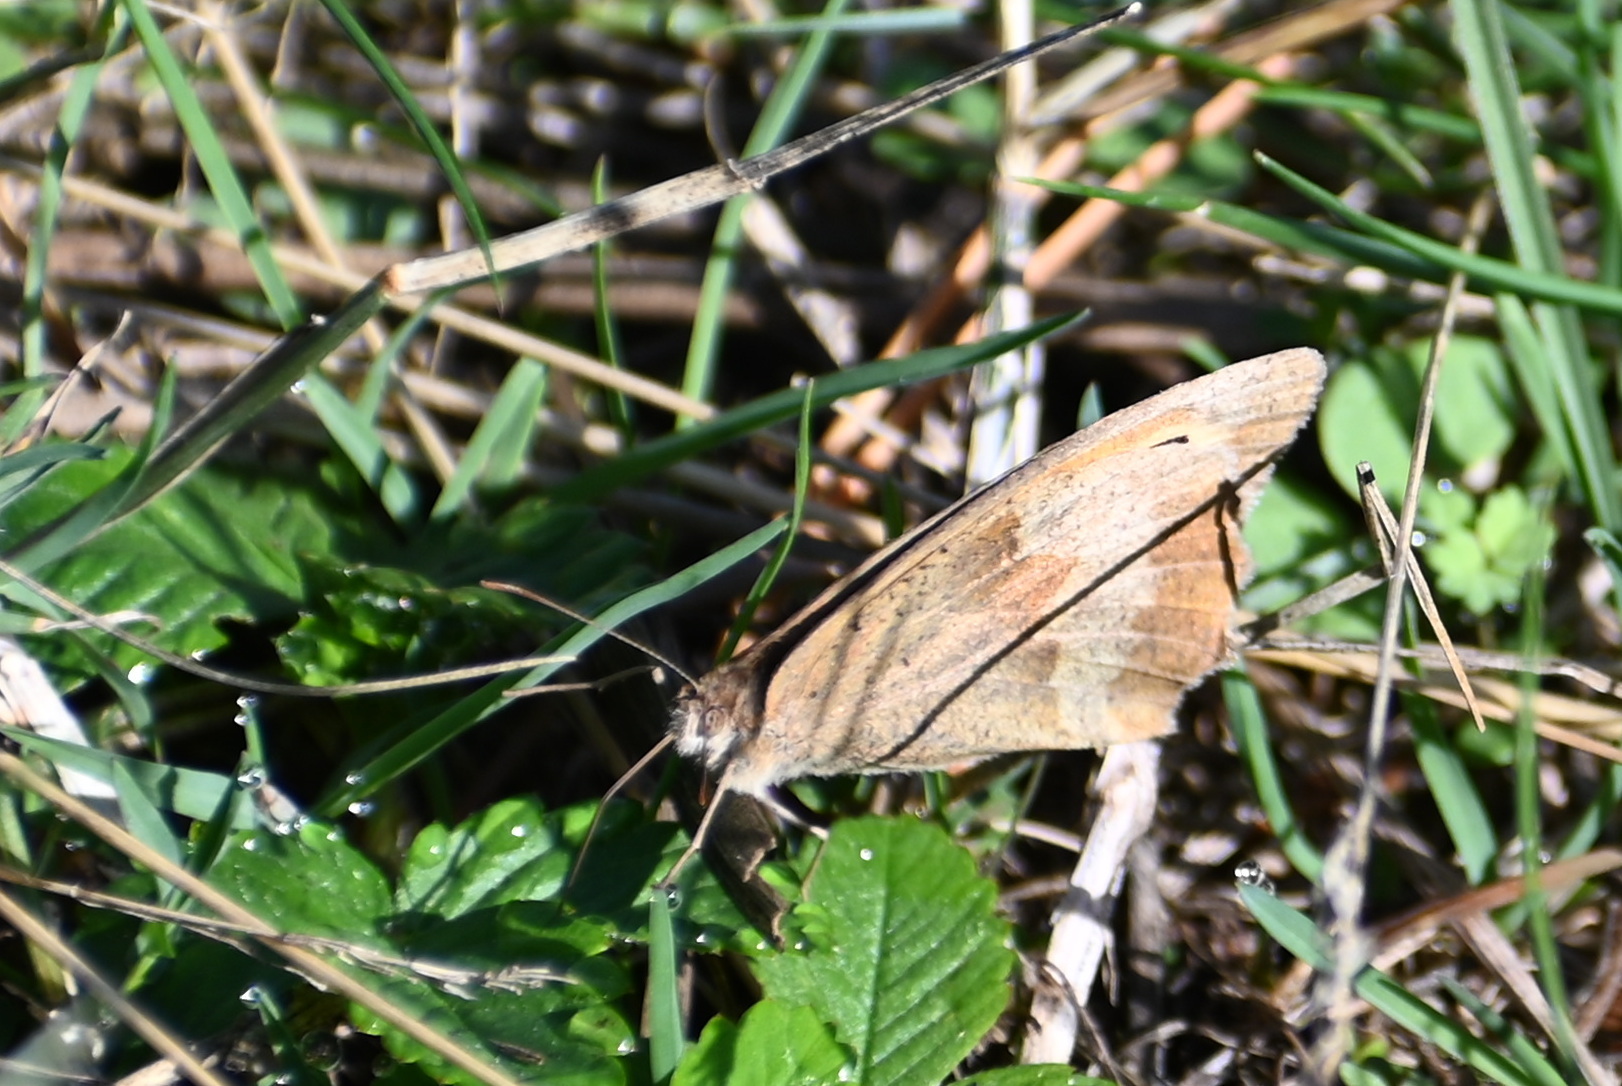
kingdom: Animalia
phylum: Arthropoda
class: Insecta
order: Lepidoptera
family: Nymphalidae
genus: Maniola
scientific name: Maniola jurtina
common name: Meadow brown
